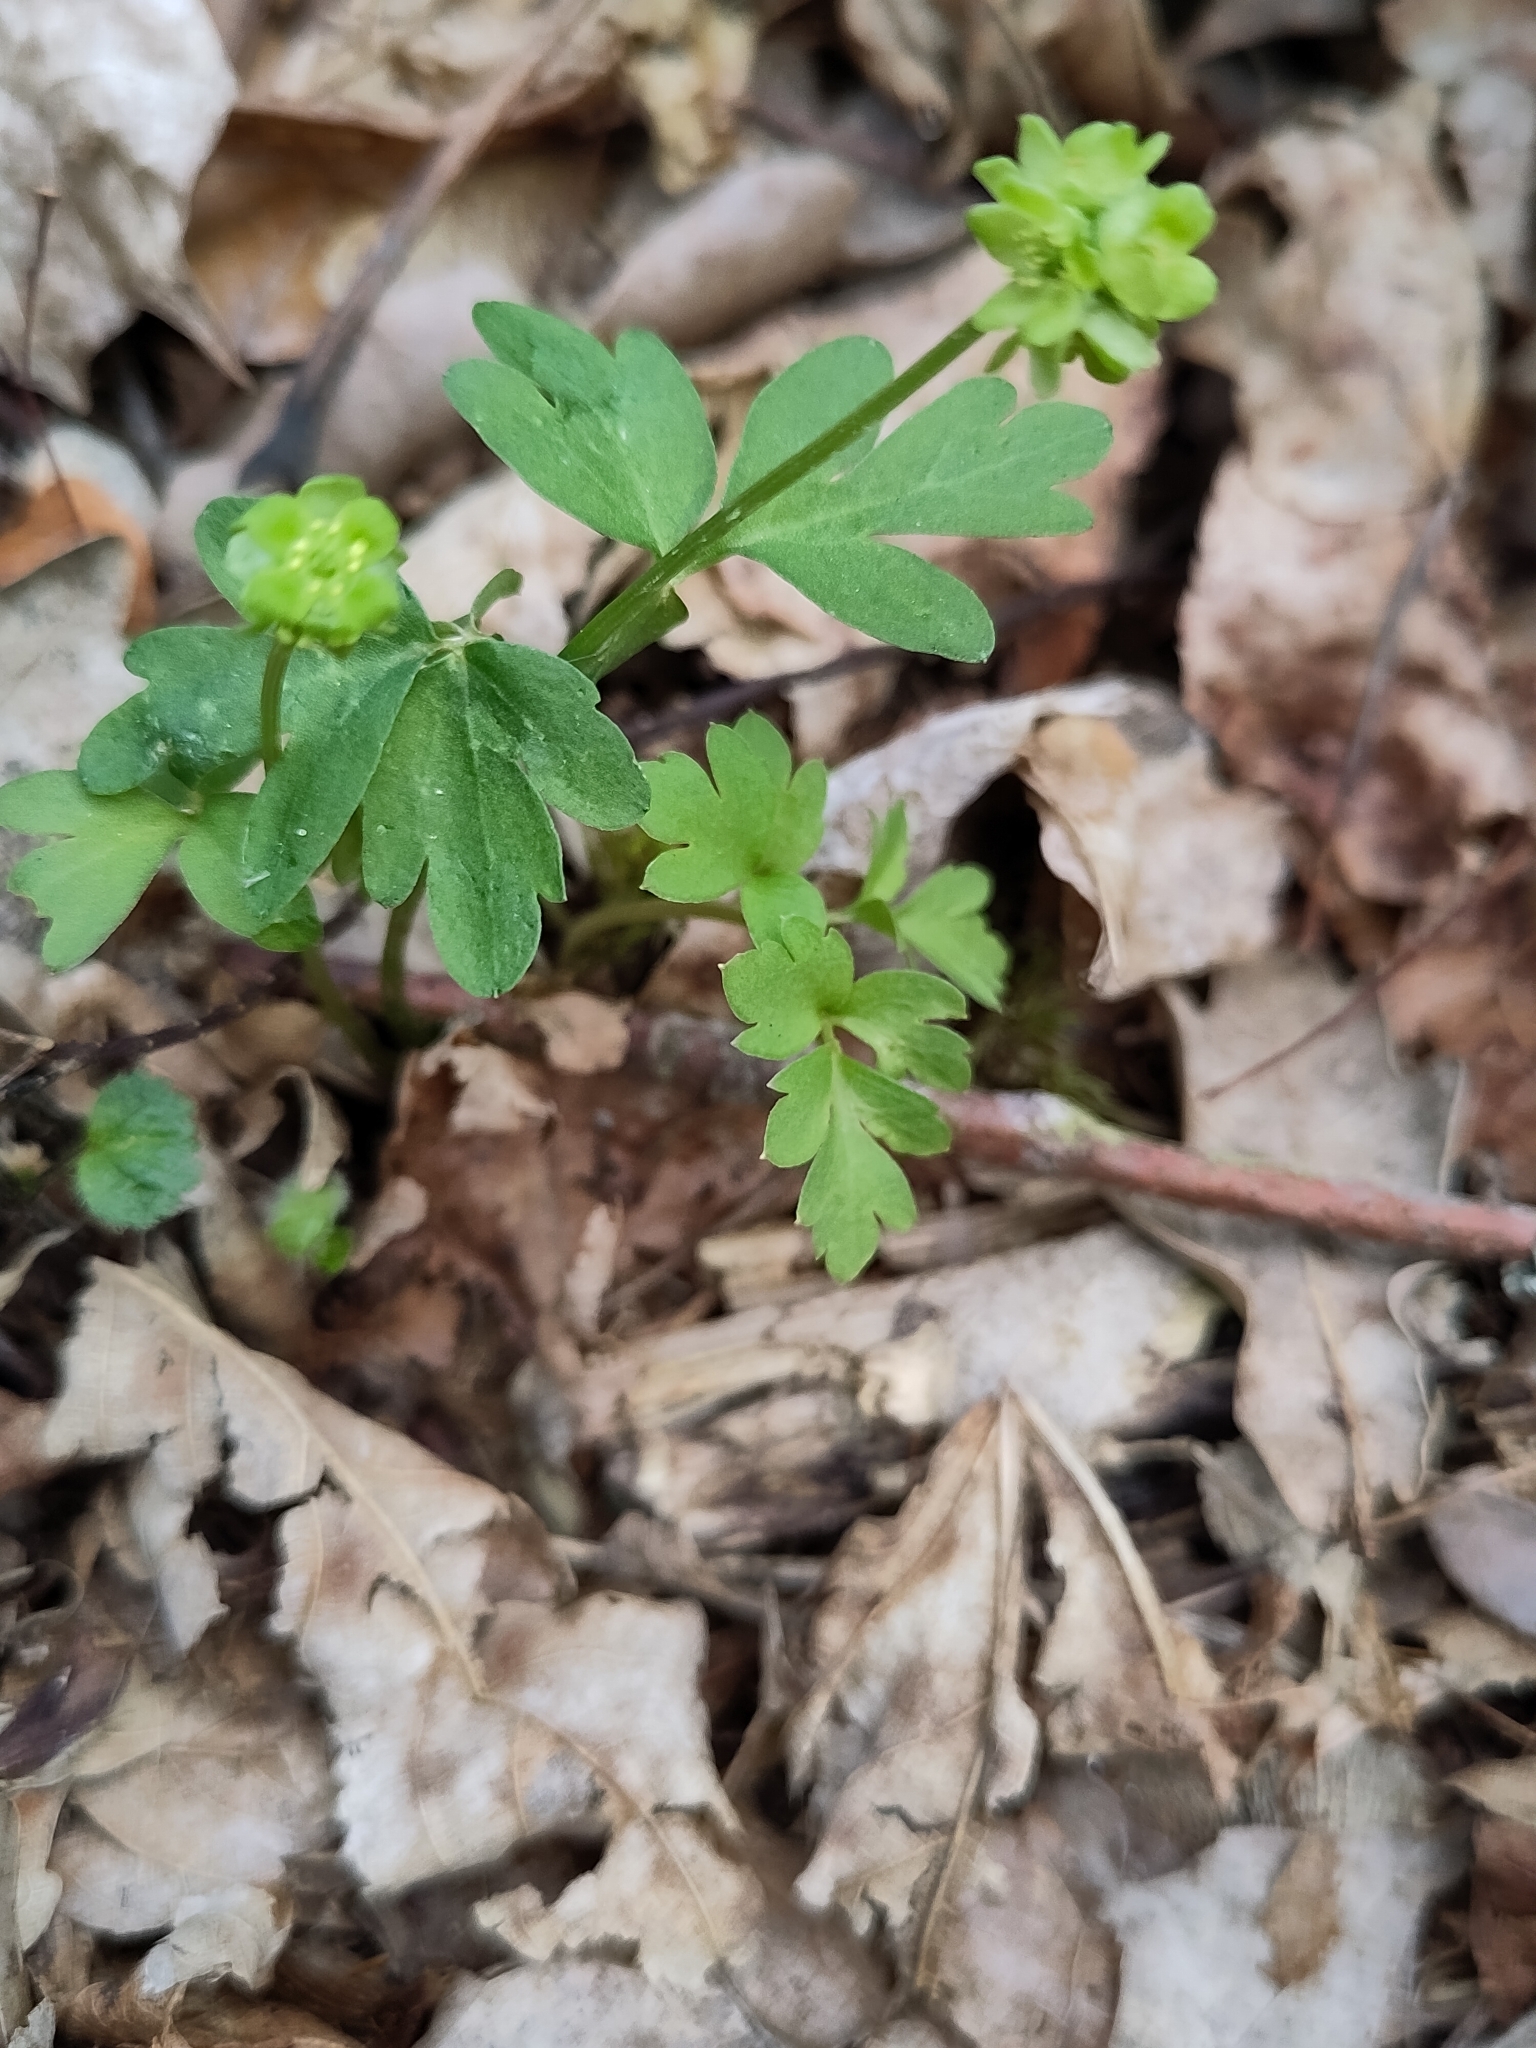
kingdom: Plantae
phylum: Tracheophyta
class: Magnoliopsida
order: Dipsacales
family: Viburnaceae
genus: Adoxa
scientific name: Adoxa moschatellina
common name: Moschatel
